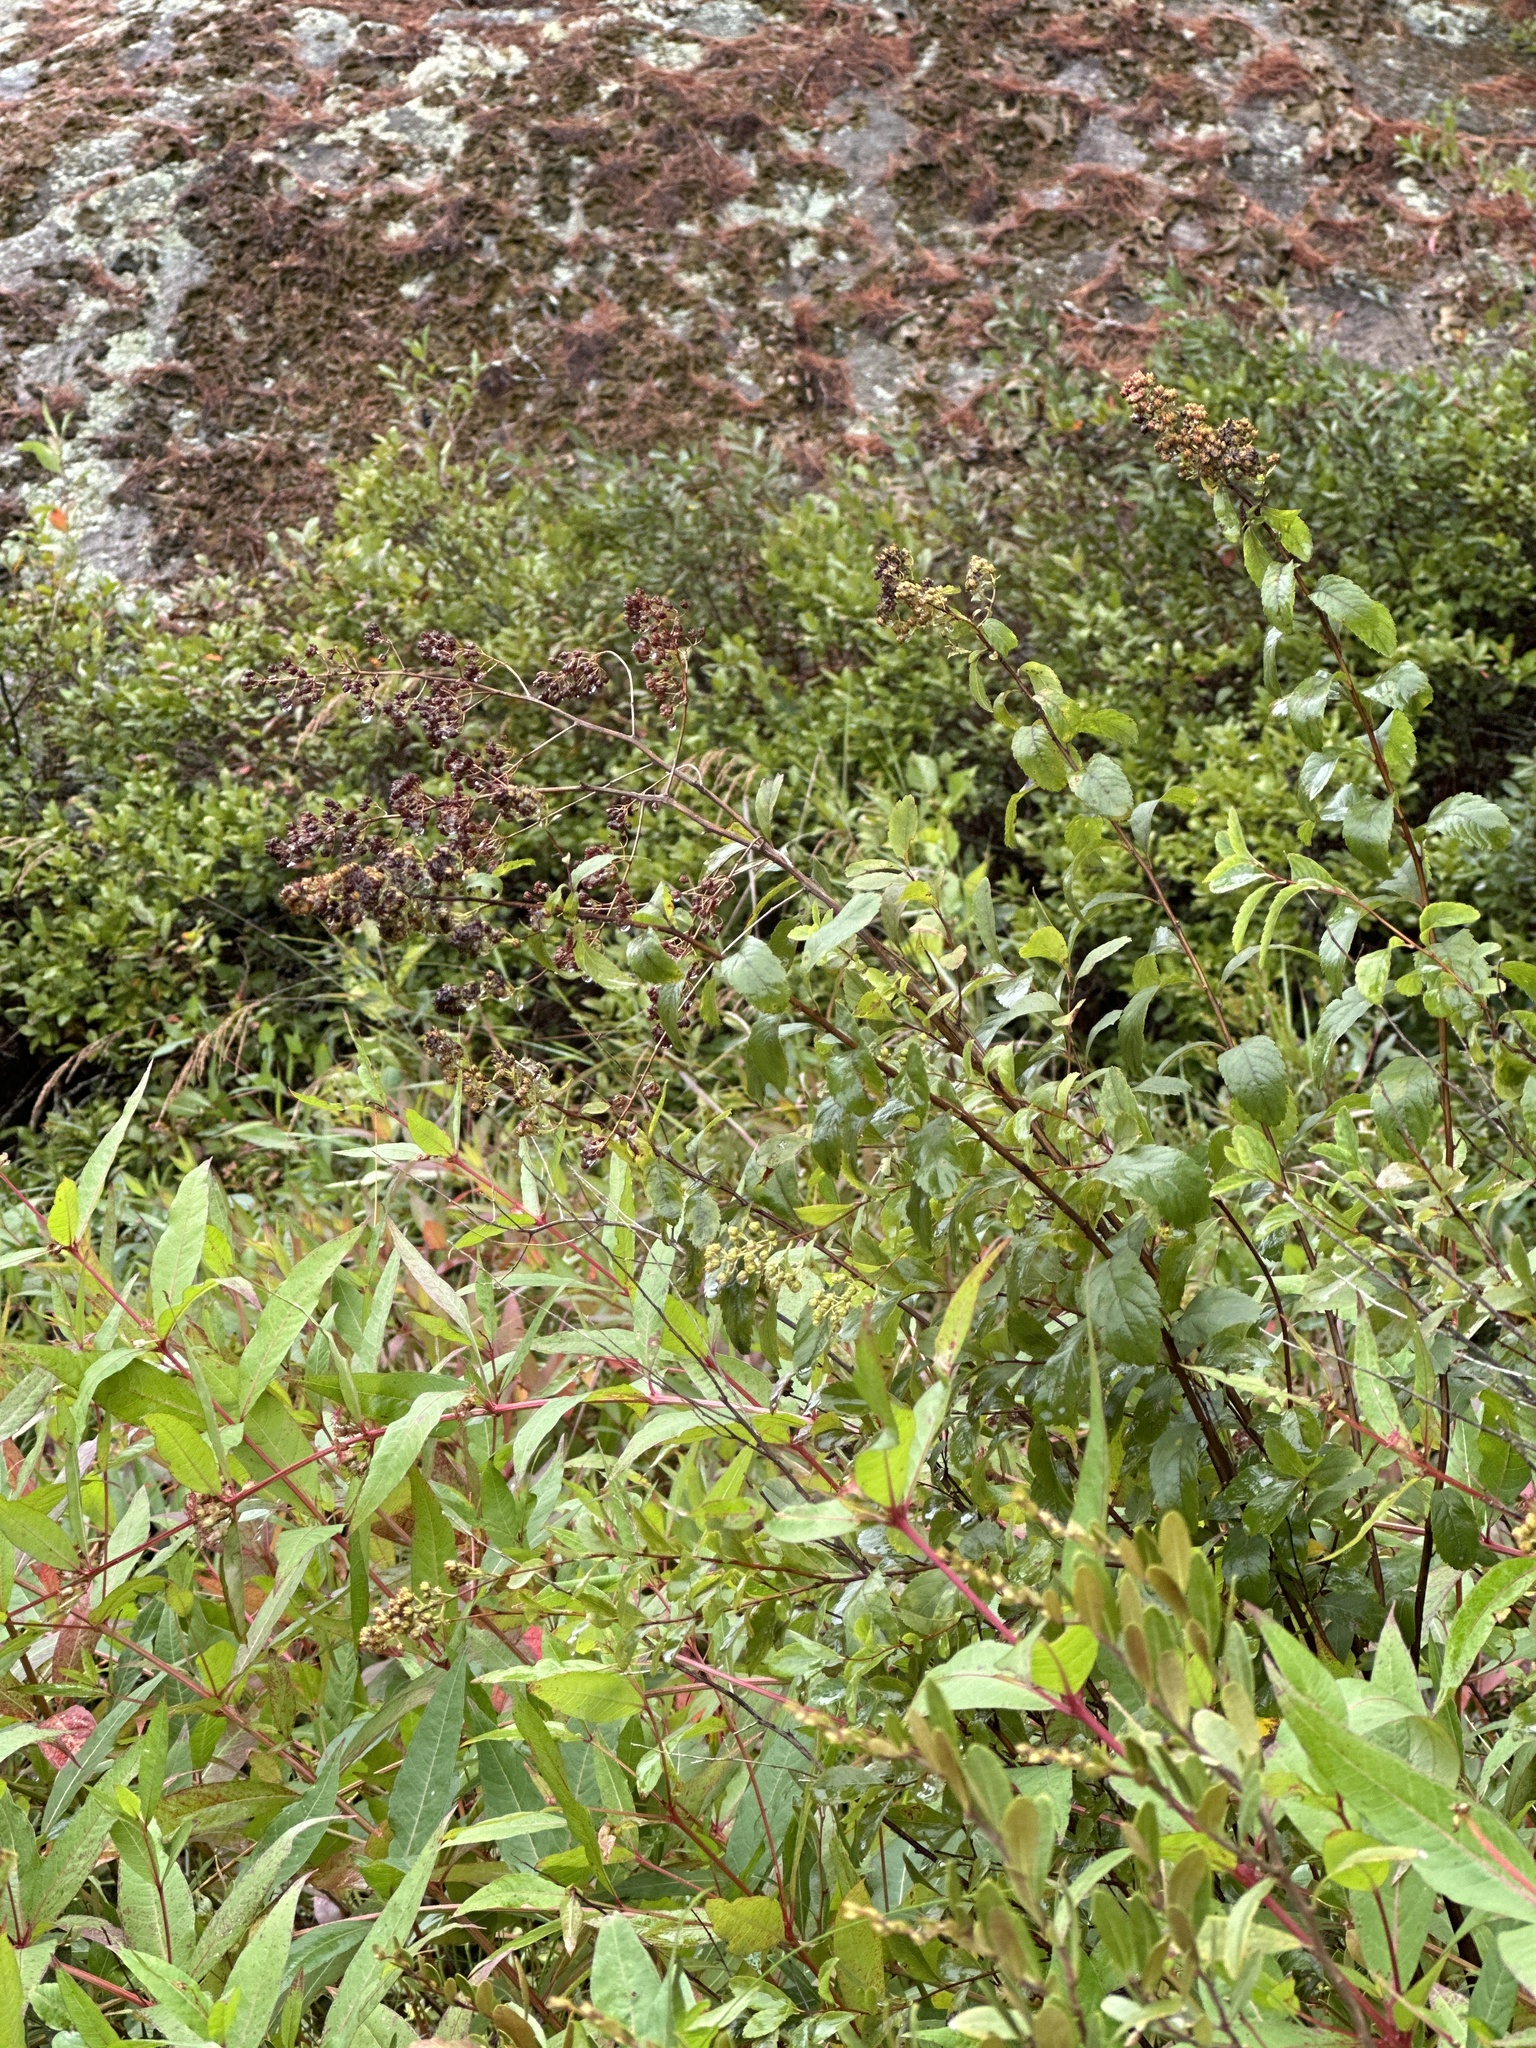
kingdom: Plantae
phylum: Tracheophyta
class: Magnoliopsida
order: Rosales
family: Rosaceae
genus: Spiraea
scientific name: Spiraea alba
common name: Pale bridewort
